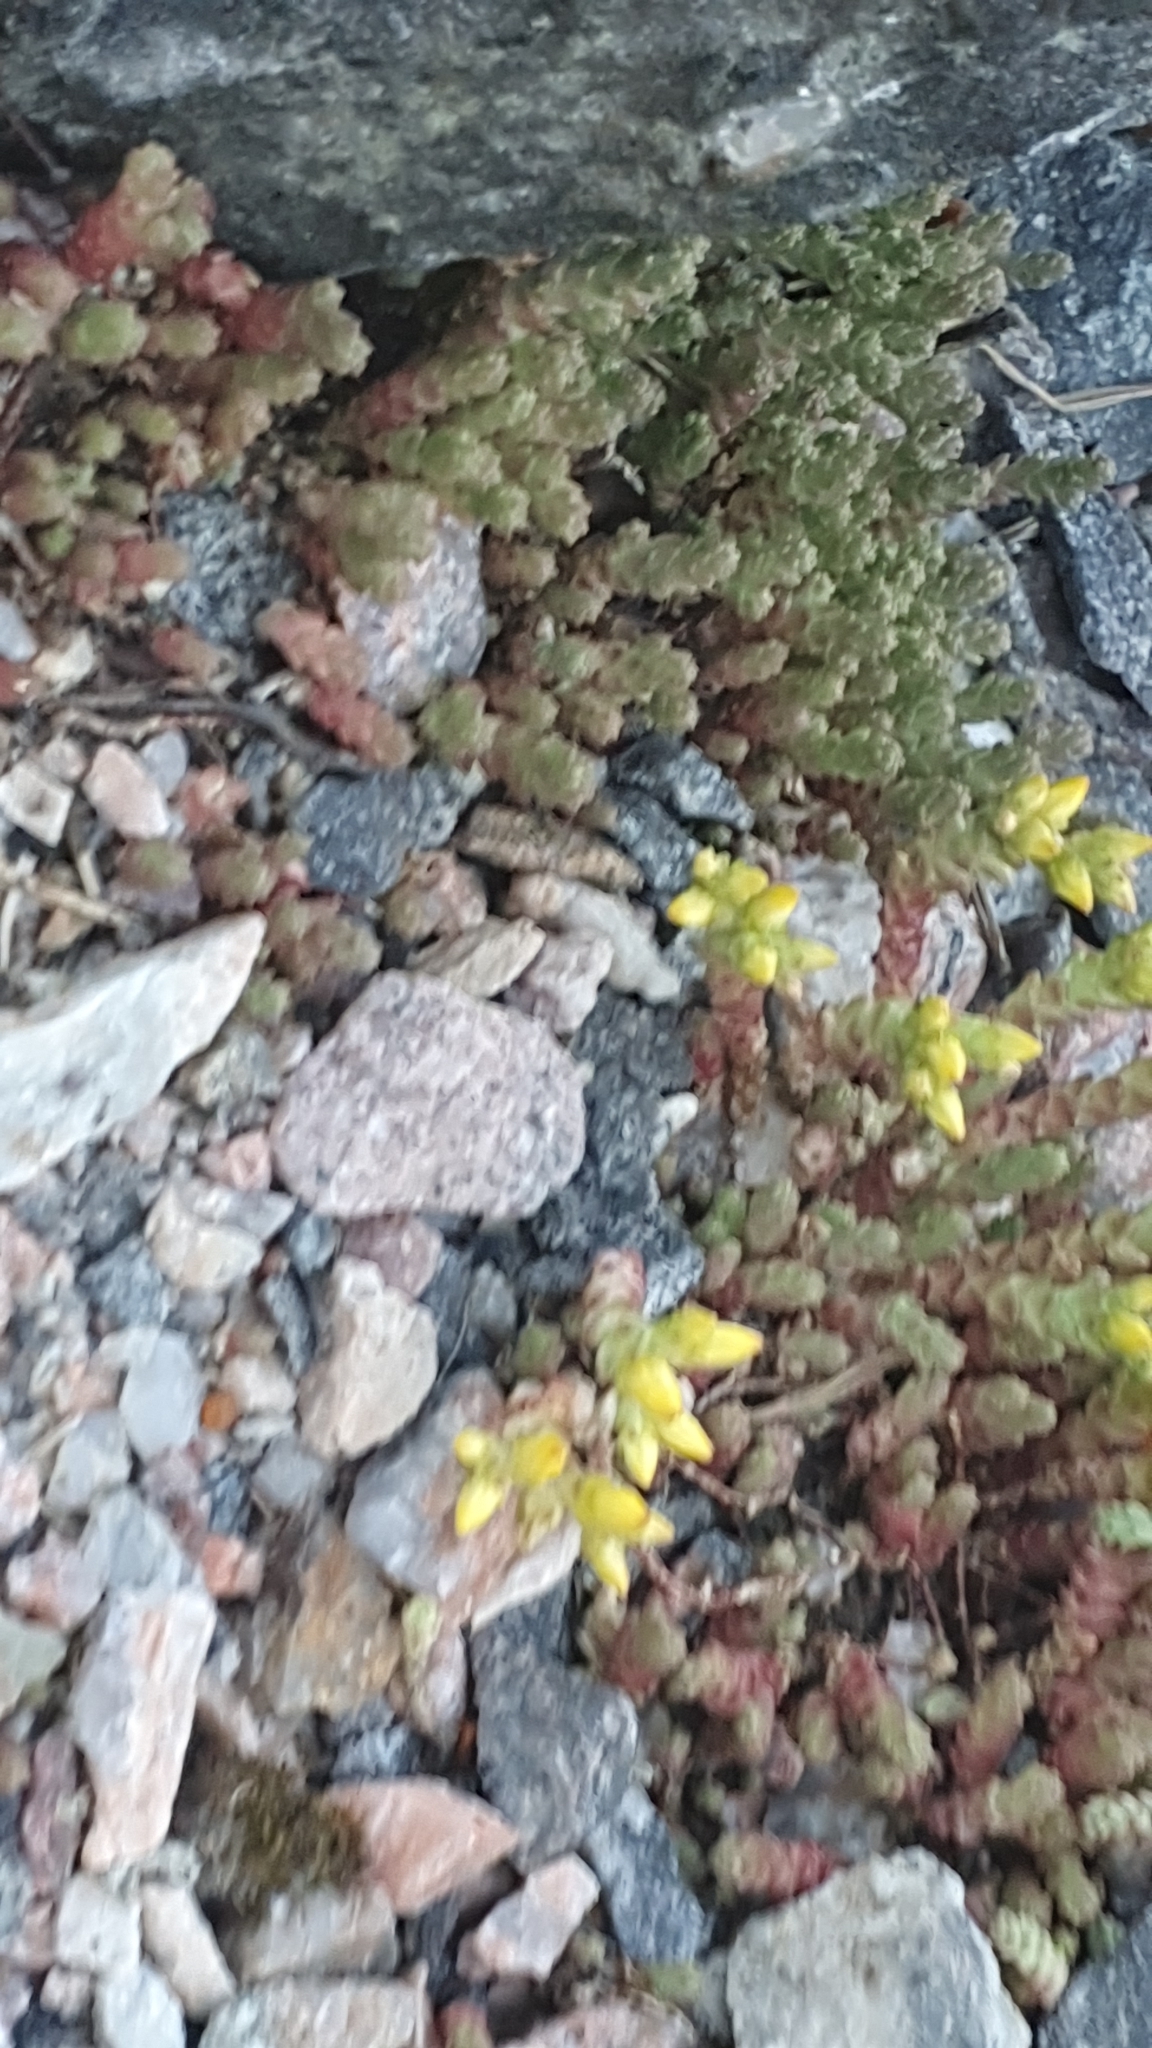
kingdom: Plantae
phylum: Tracheophyta
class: Magnoliopsida
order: Saxifragales
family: Crassulaceae
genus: Sedum
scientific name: Sedum acre
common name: Biting stonecrop
